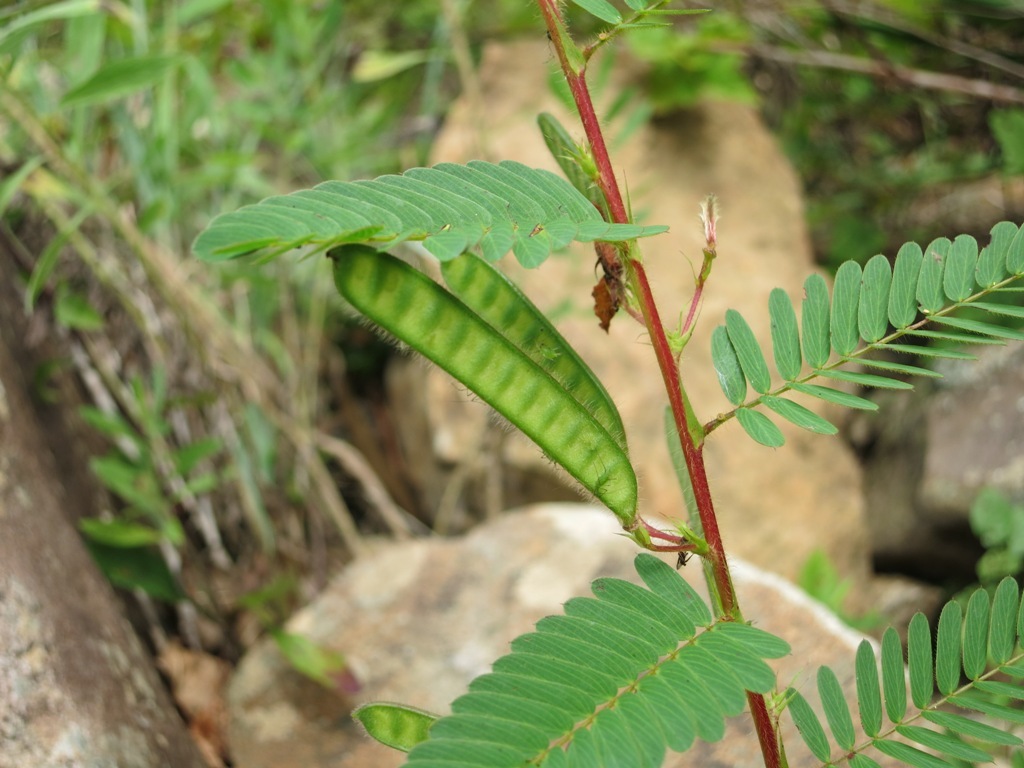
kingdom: Plantae
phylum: Tracheophyta
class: Magnoliopsida
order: Fabales
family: Fabaceae
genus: Chamaecrista
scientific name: Chamaecrista fasciculata
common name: Golden cassia
